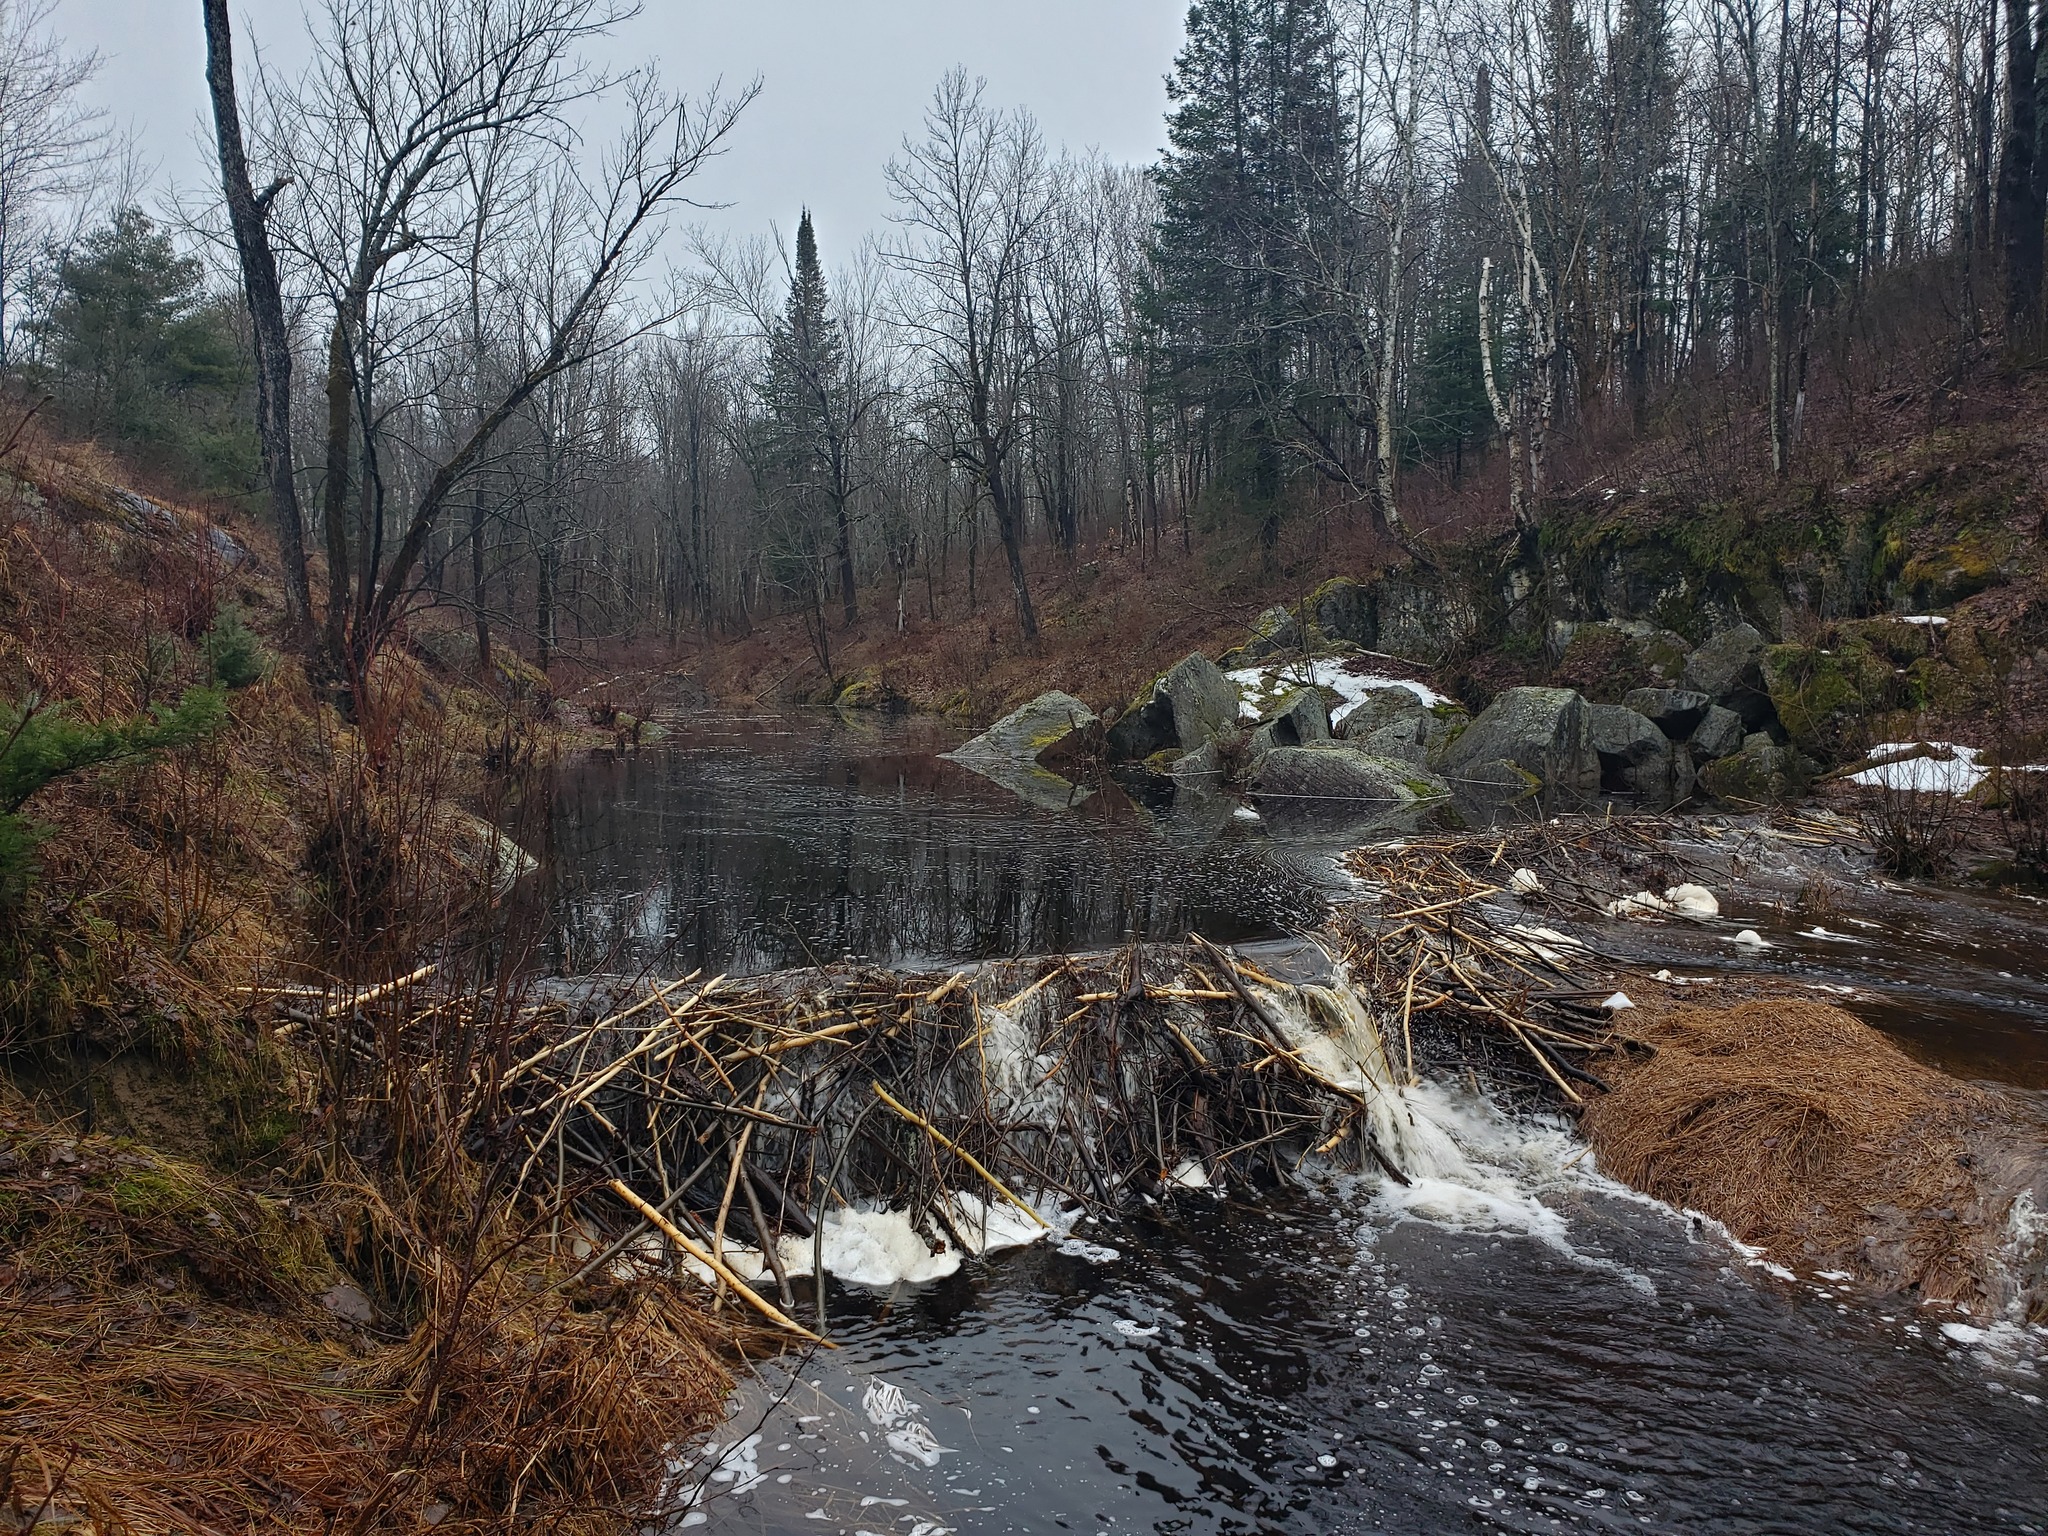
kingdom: Animalia
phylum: Chordata
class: Mammalia
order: Rodentia
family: Castoridae
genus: Castor
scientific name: Castor canadensis
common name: American beaver
